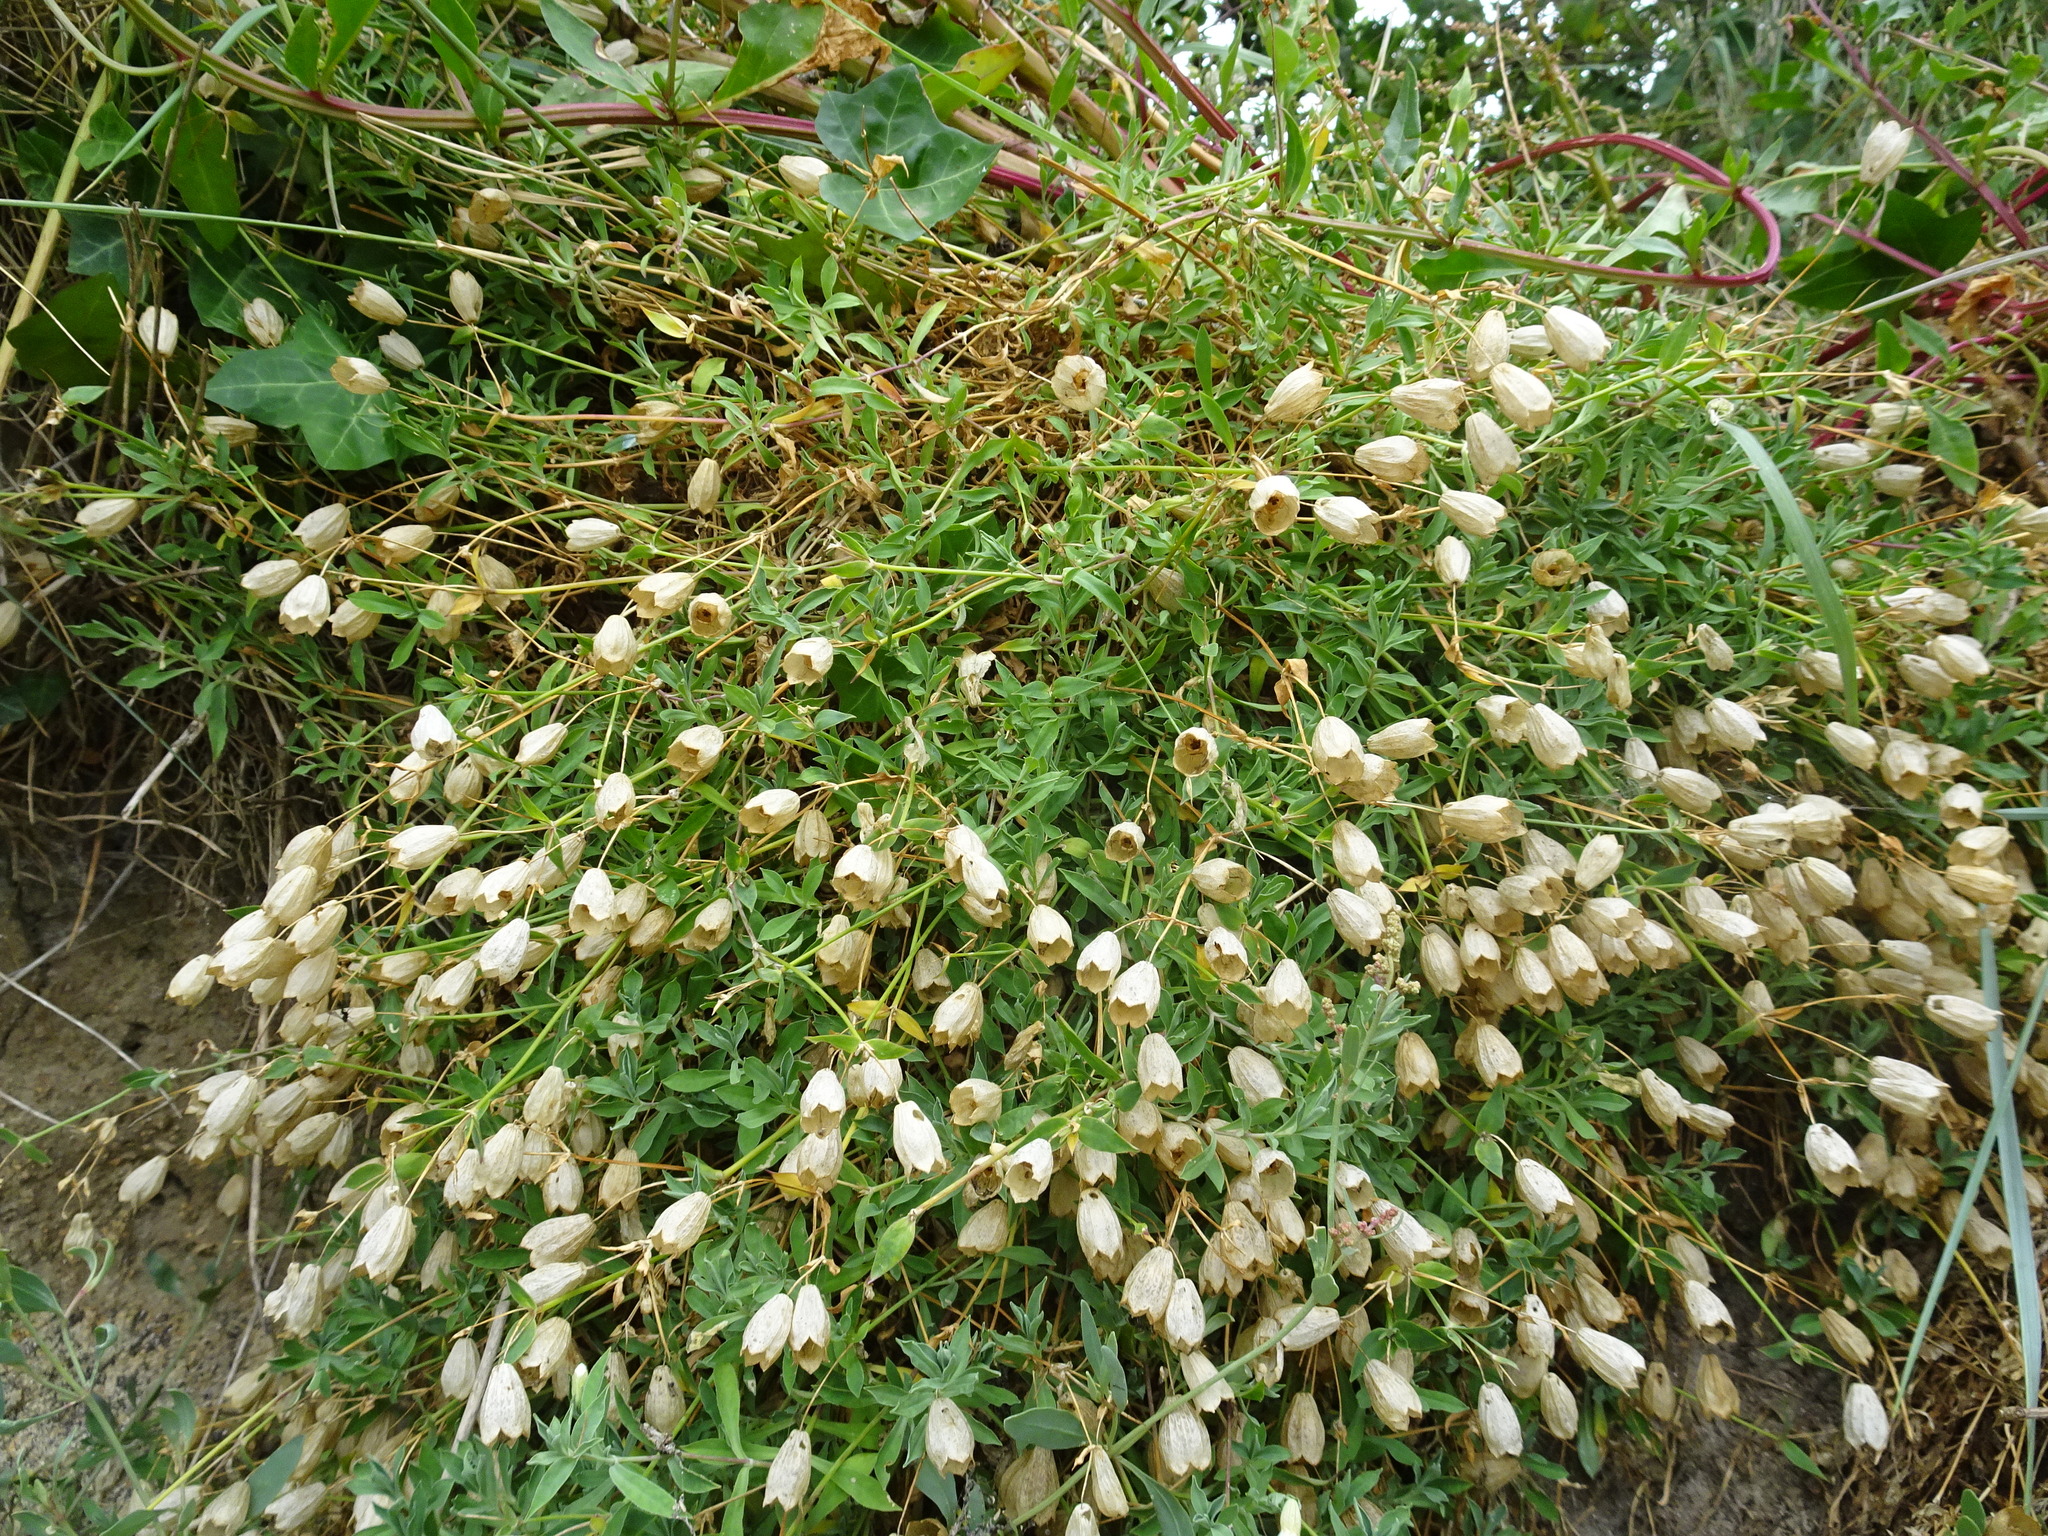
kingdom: Plantae
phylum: Tracheophyta
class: Magnoliopsida
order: Caryophyllales
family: Caryophyllaceae
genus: Silene
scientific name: Silene uniflora
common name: Sea campion
